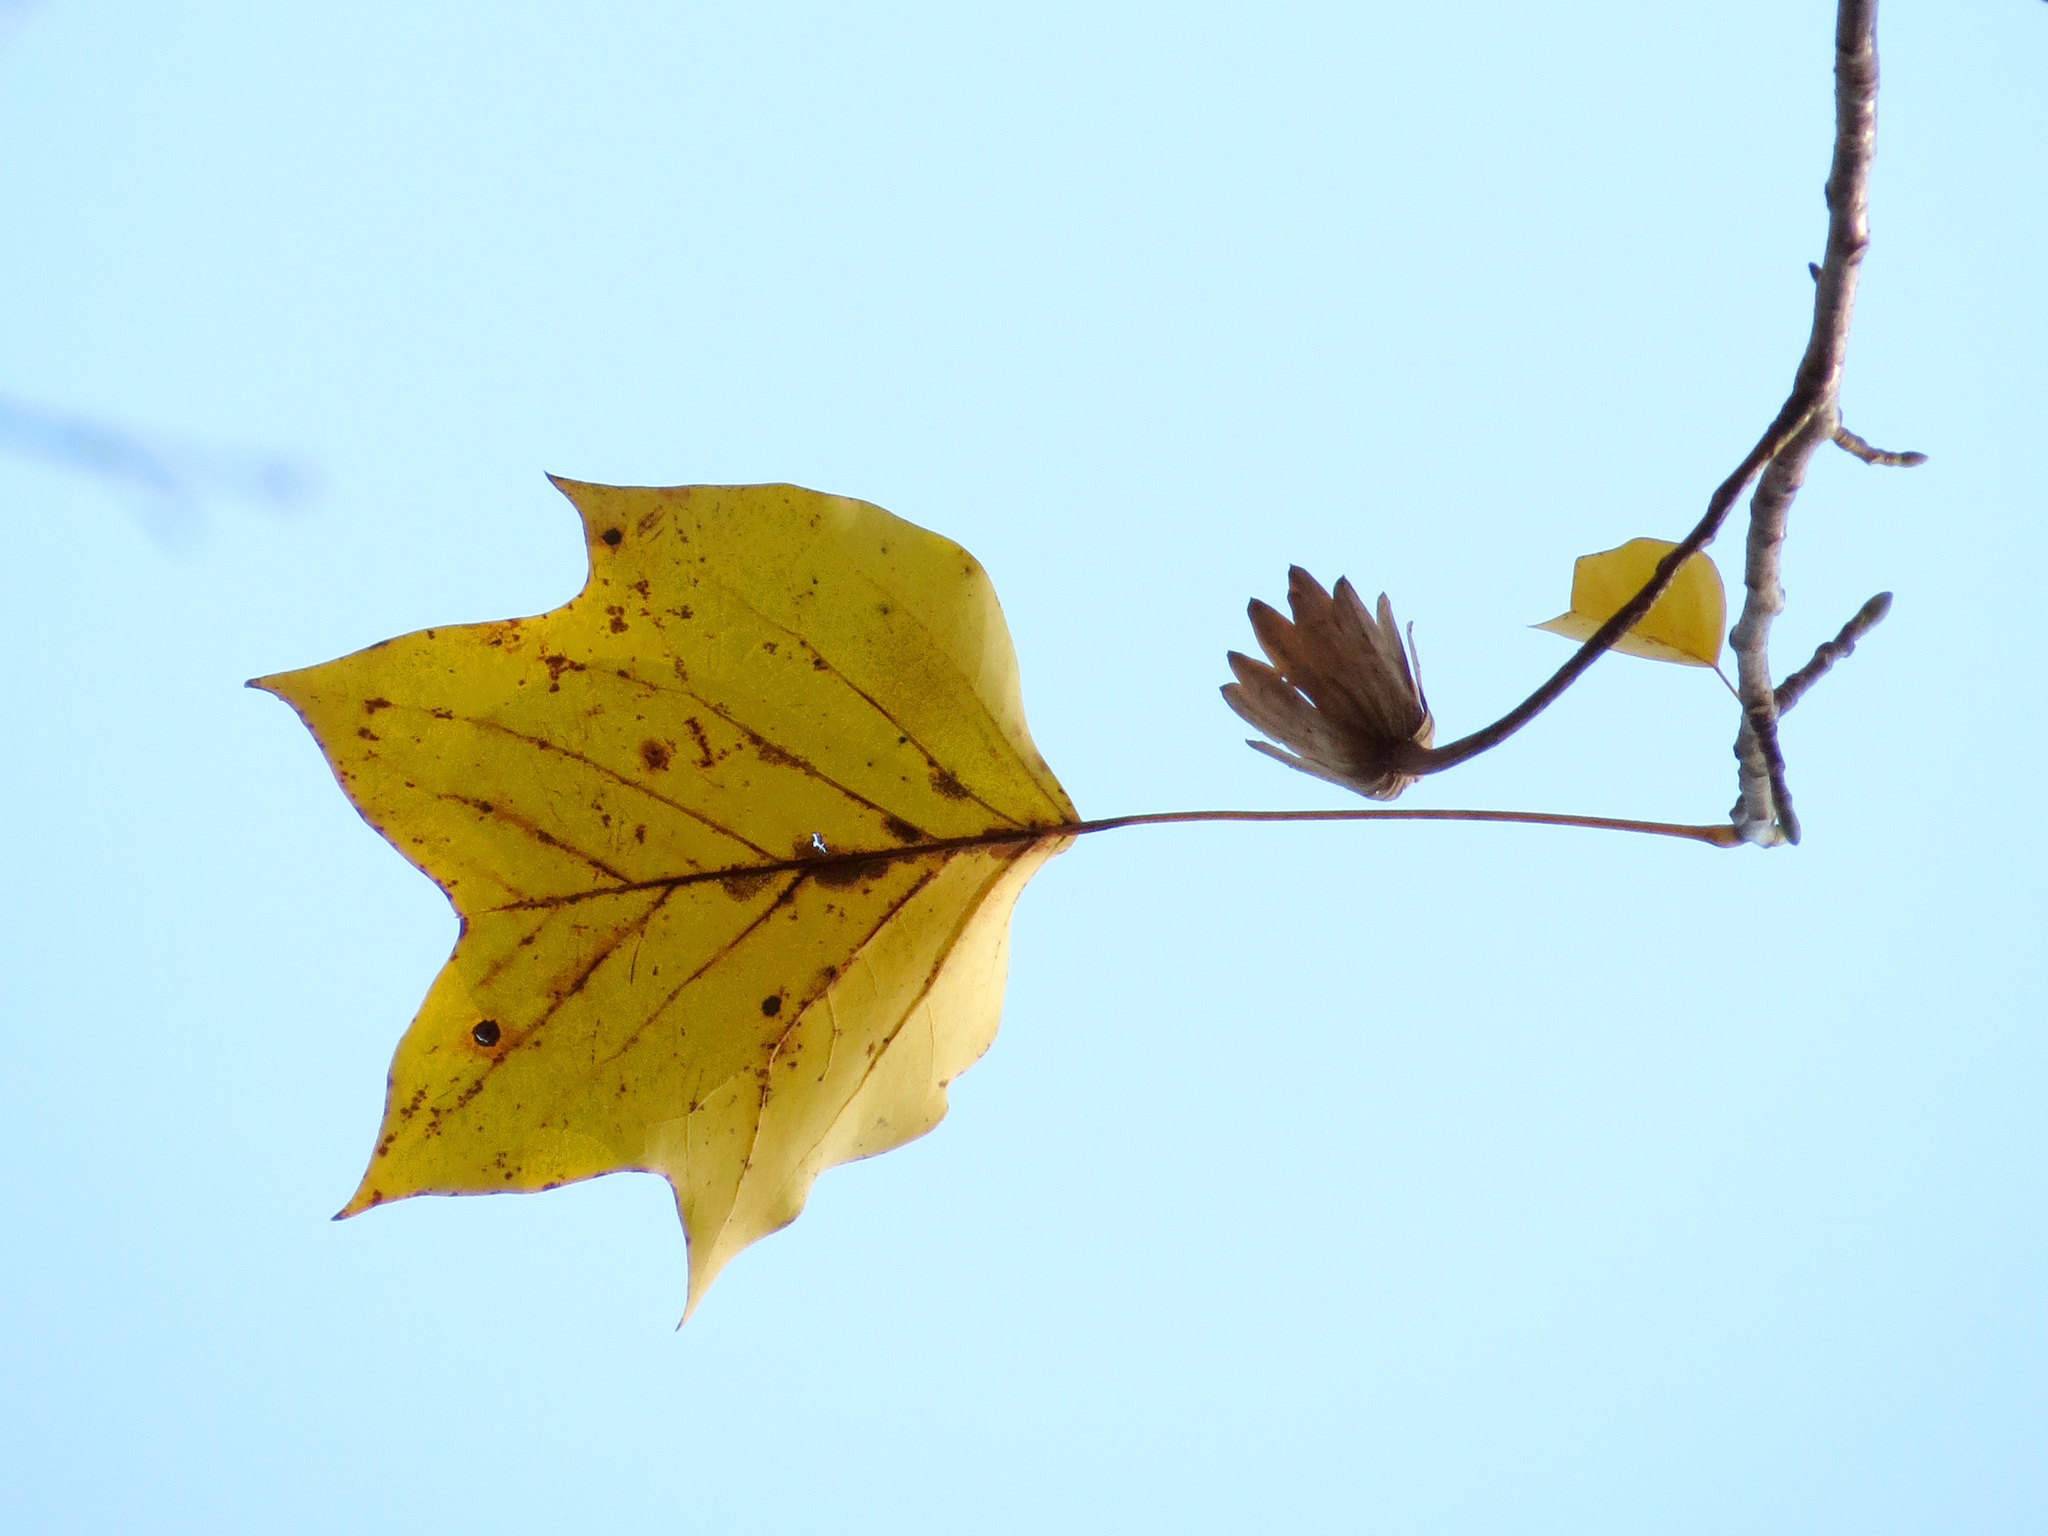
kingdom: Plantae
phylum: Tracheophyta
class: Magnoliopsida
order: Magnoliales
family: Magnoliaceae
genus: Liriodendron
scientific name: Liriodendron tulipifera
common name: Tulip tree
